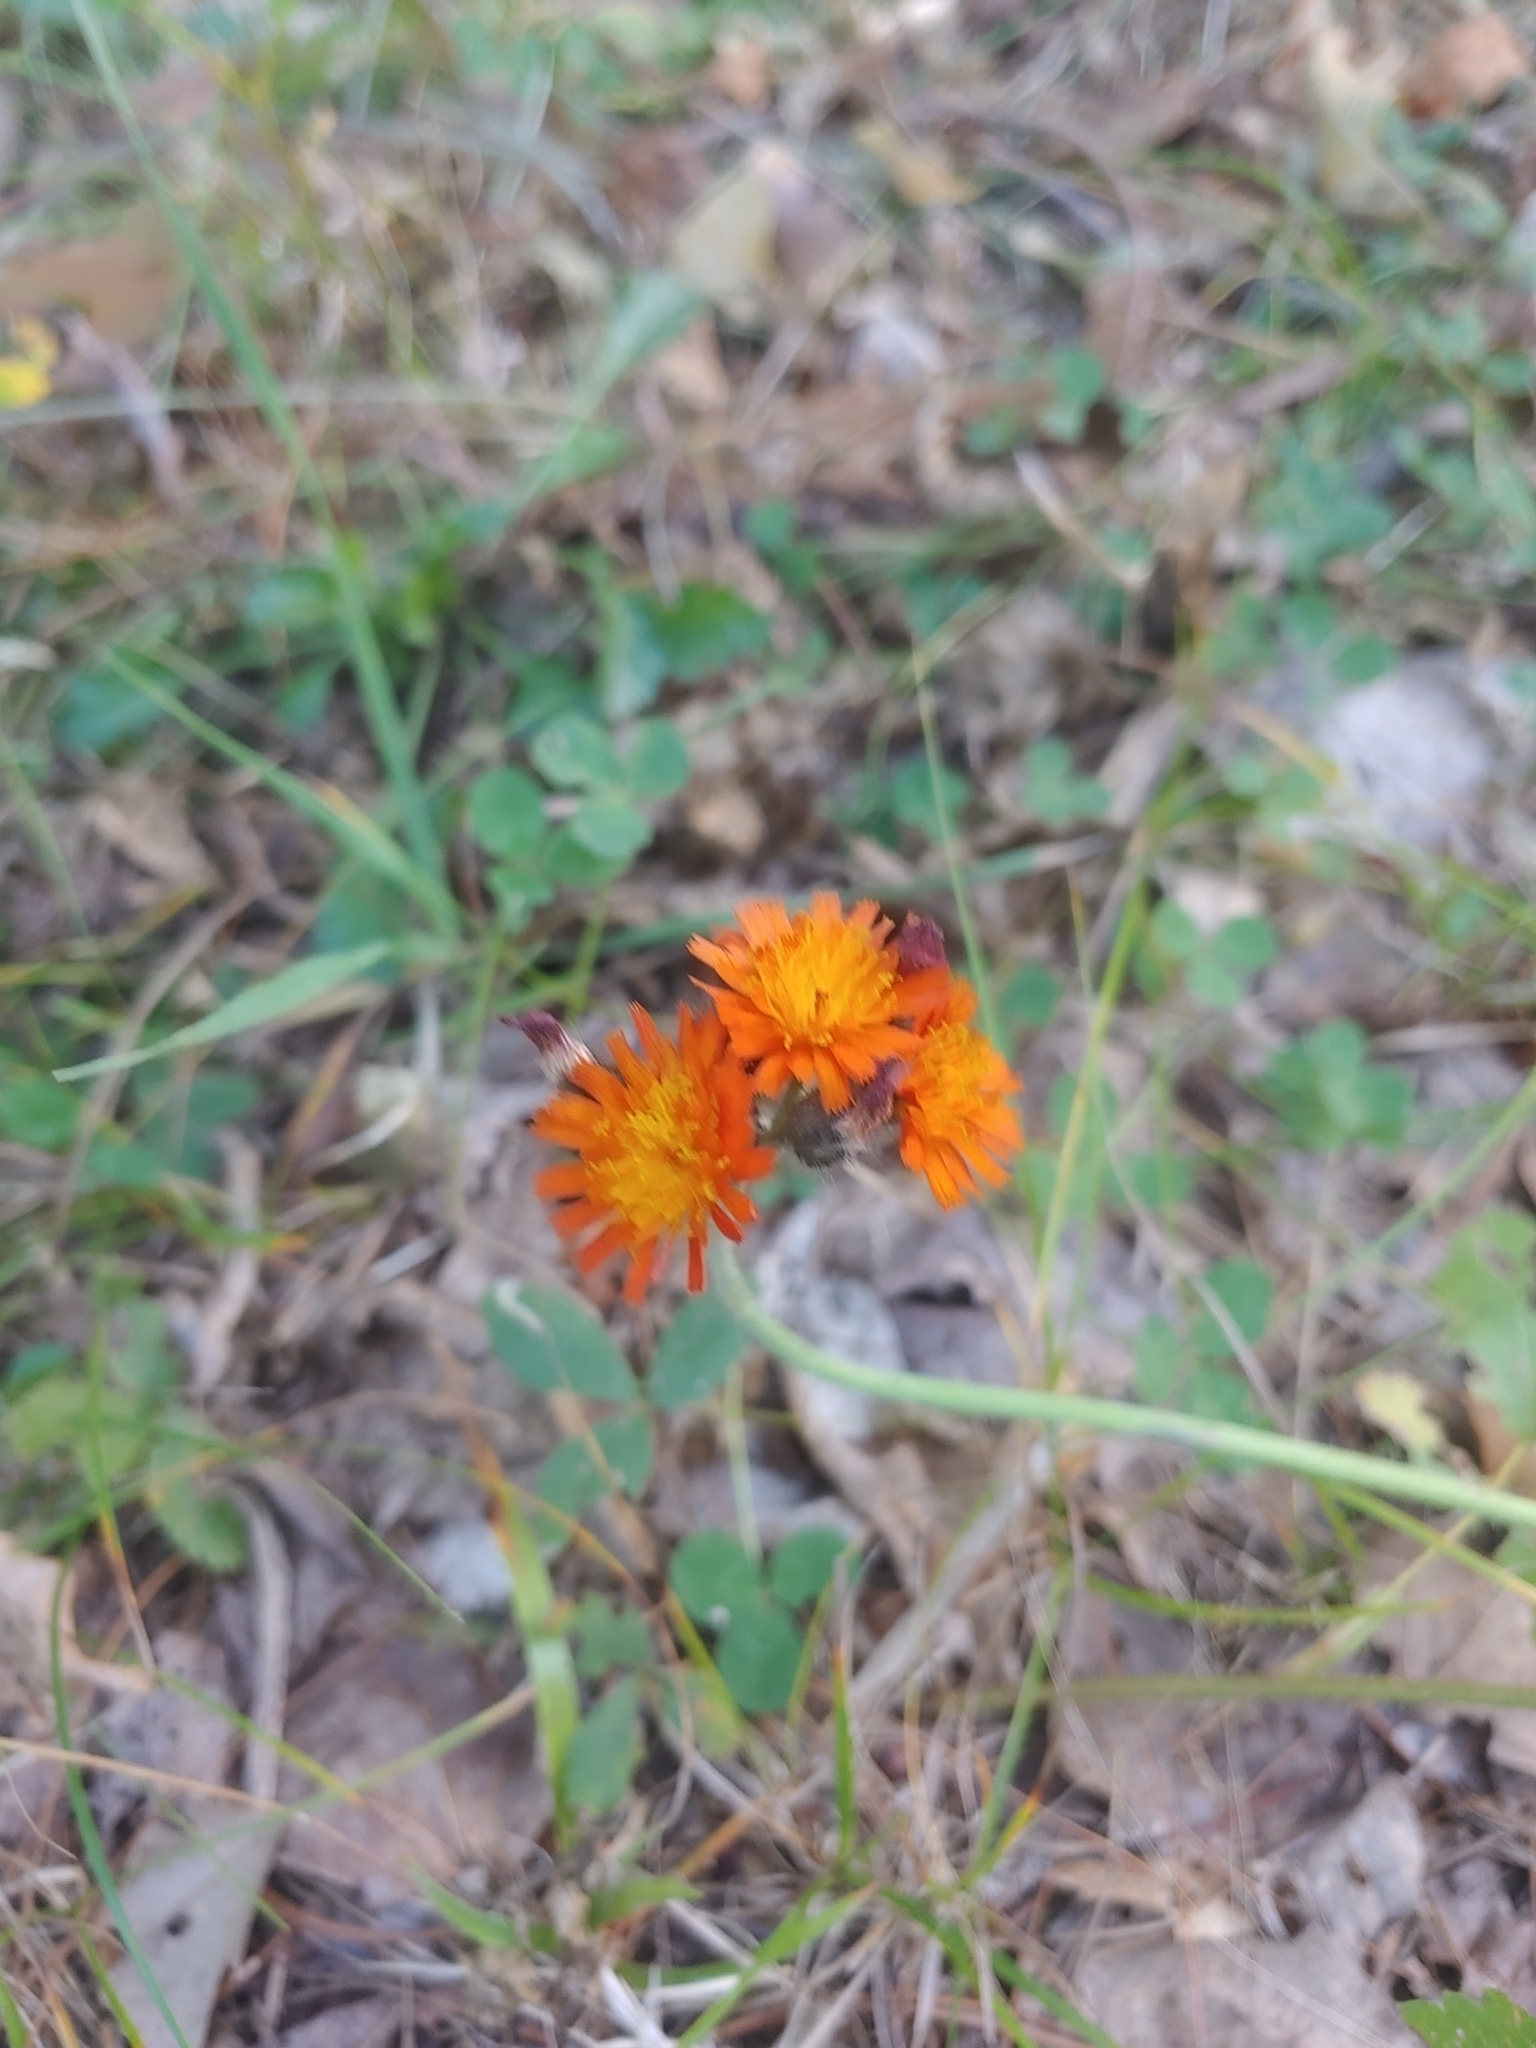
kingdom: Plantae
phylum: Tracheophyta
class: Magnoliopsida
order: Asterales
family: Asteraceae
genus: Pilosella
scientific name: Pilosella aurantiaca
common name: Fox-and-cubs
